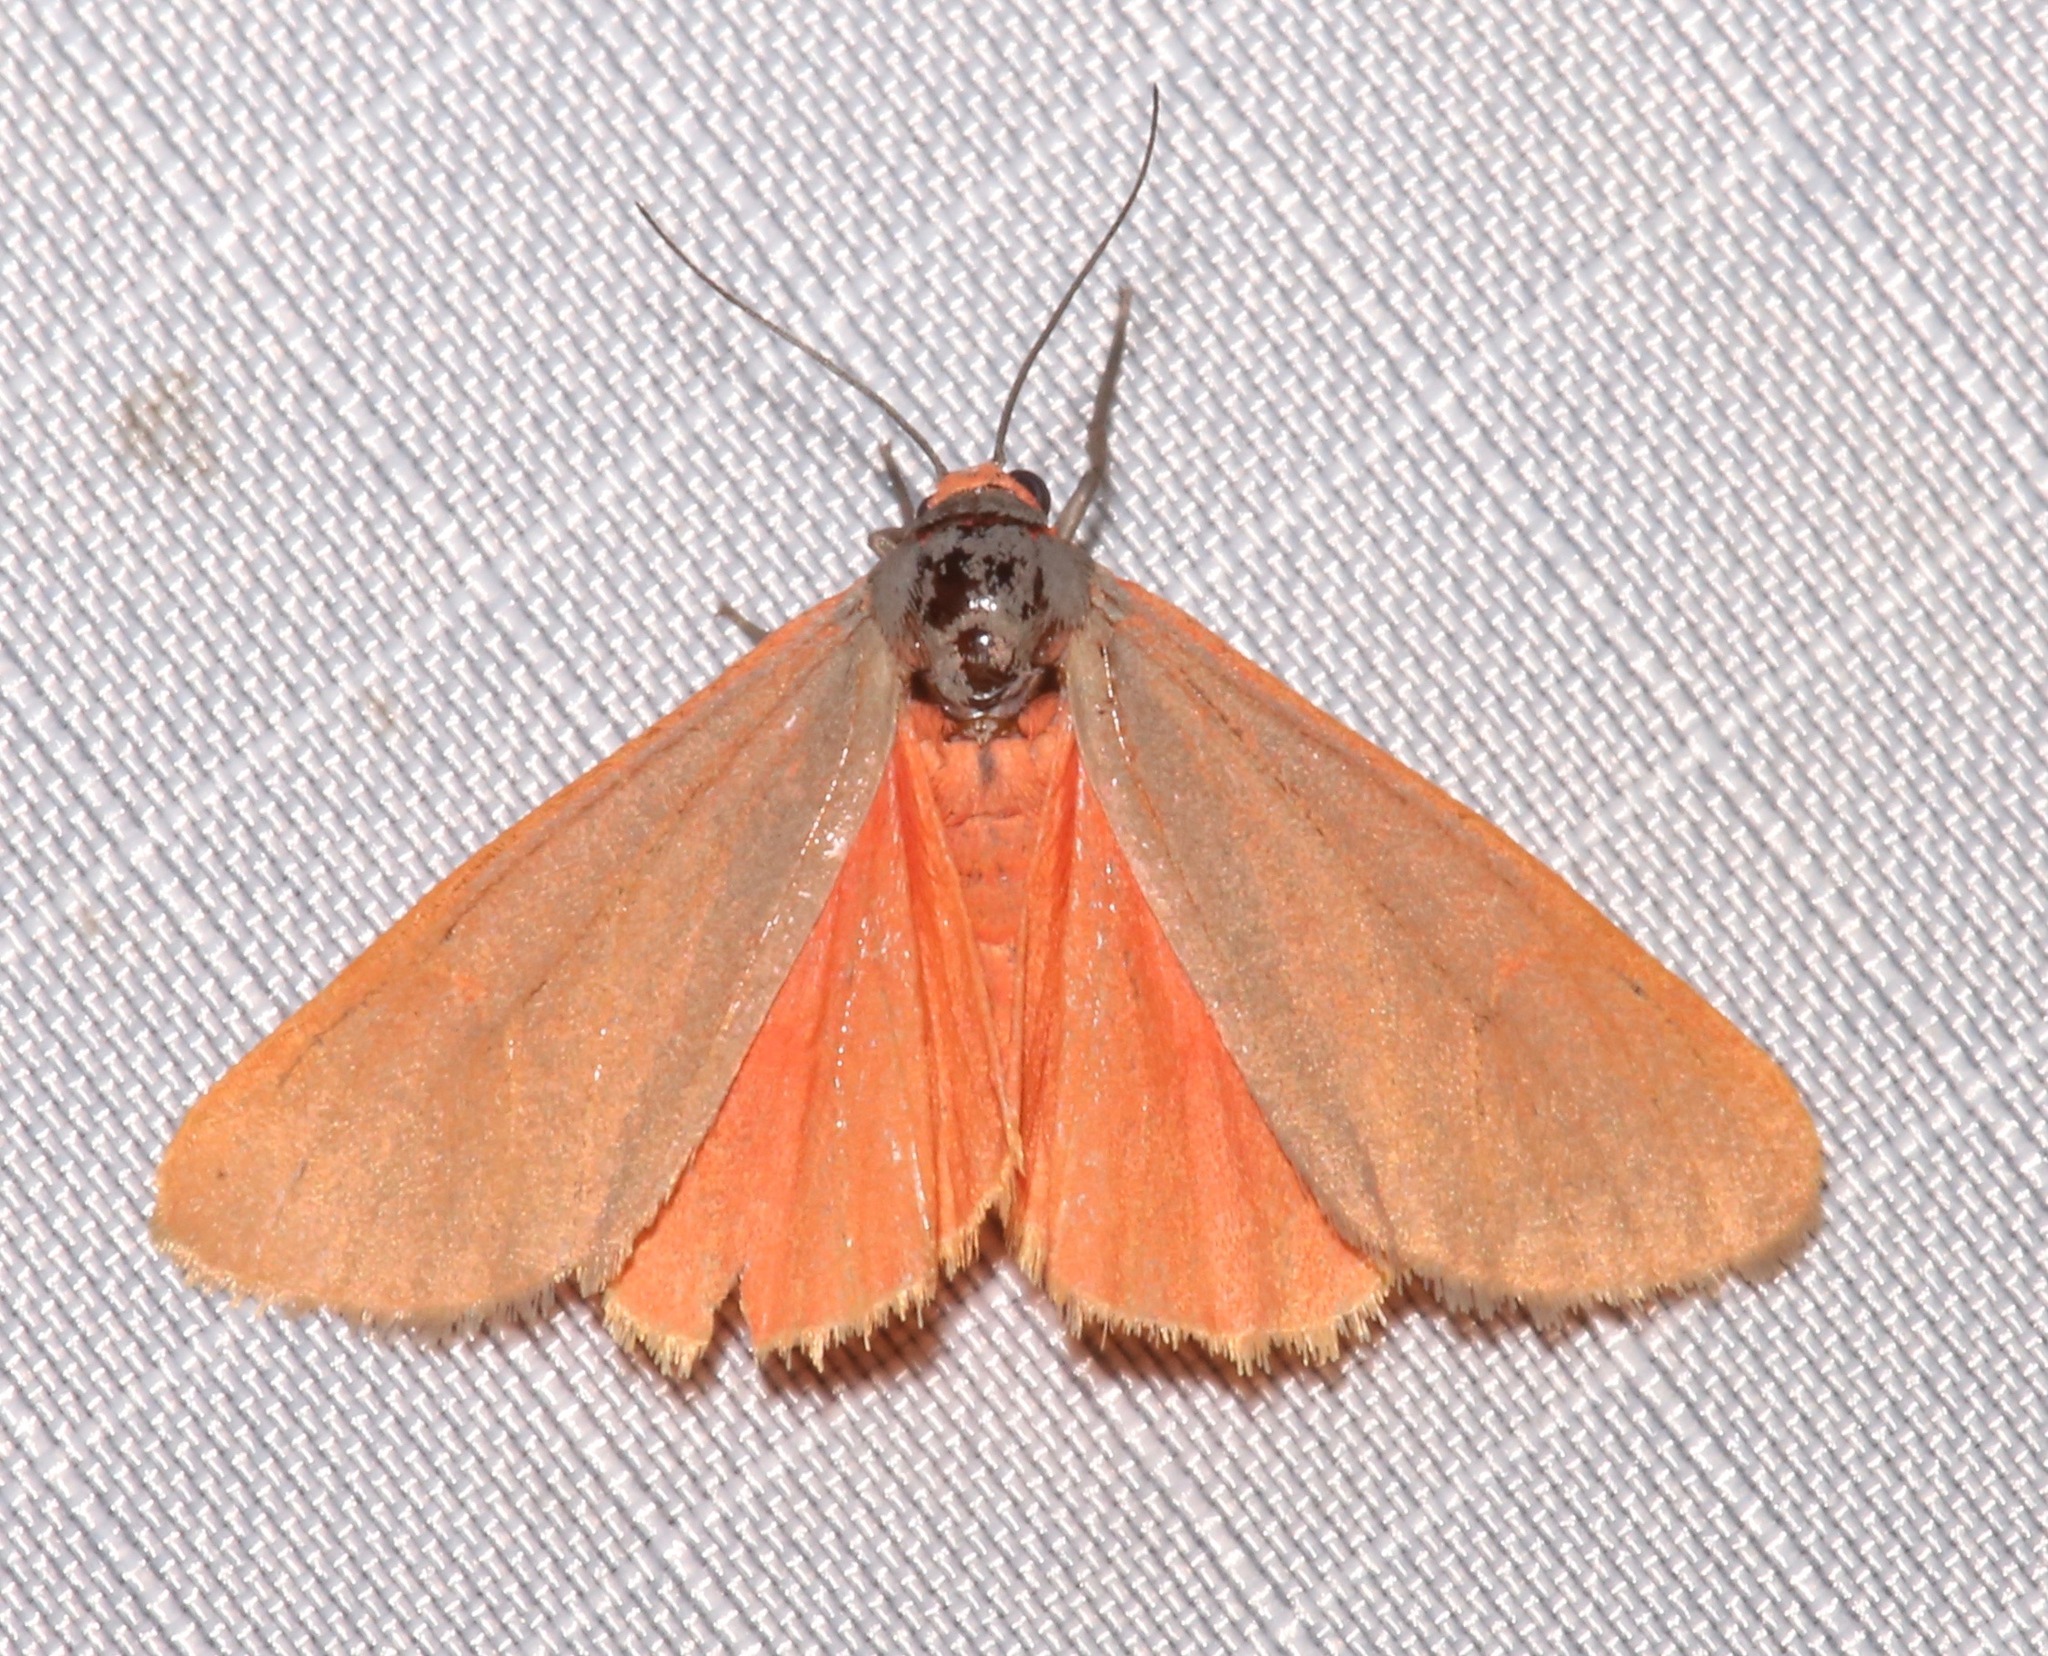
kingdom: Animalia
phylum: Arthropoda
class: Insecta
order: Lepidoptera
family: Erebidae
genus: Virbia
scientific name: Virbia costata
